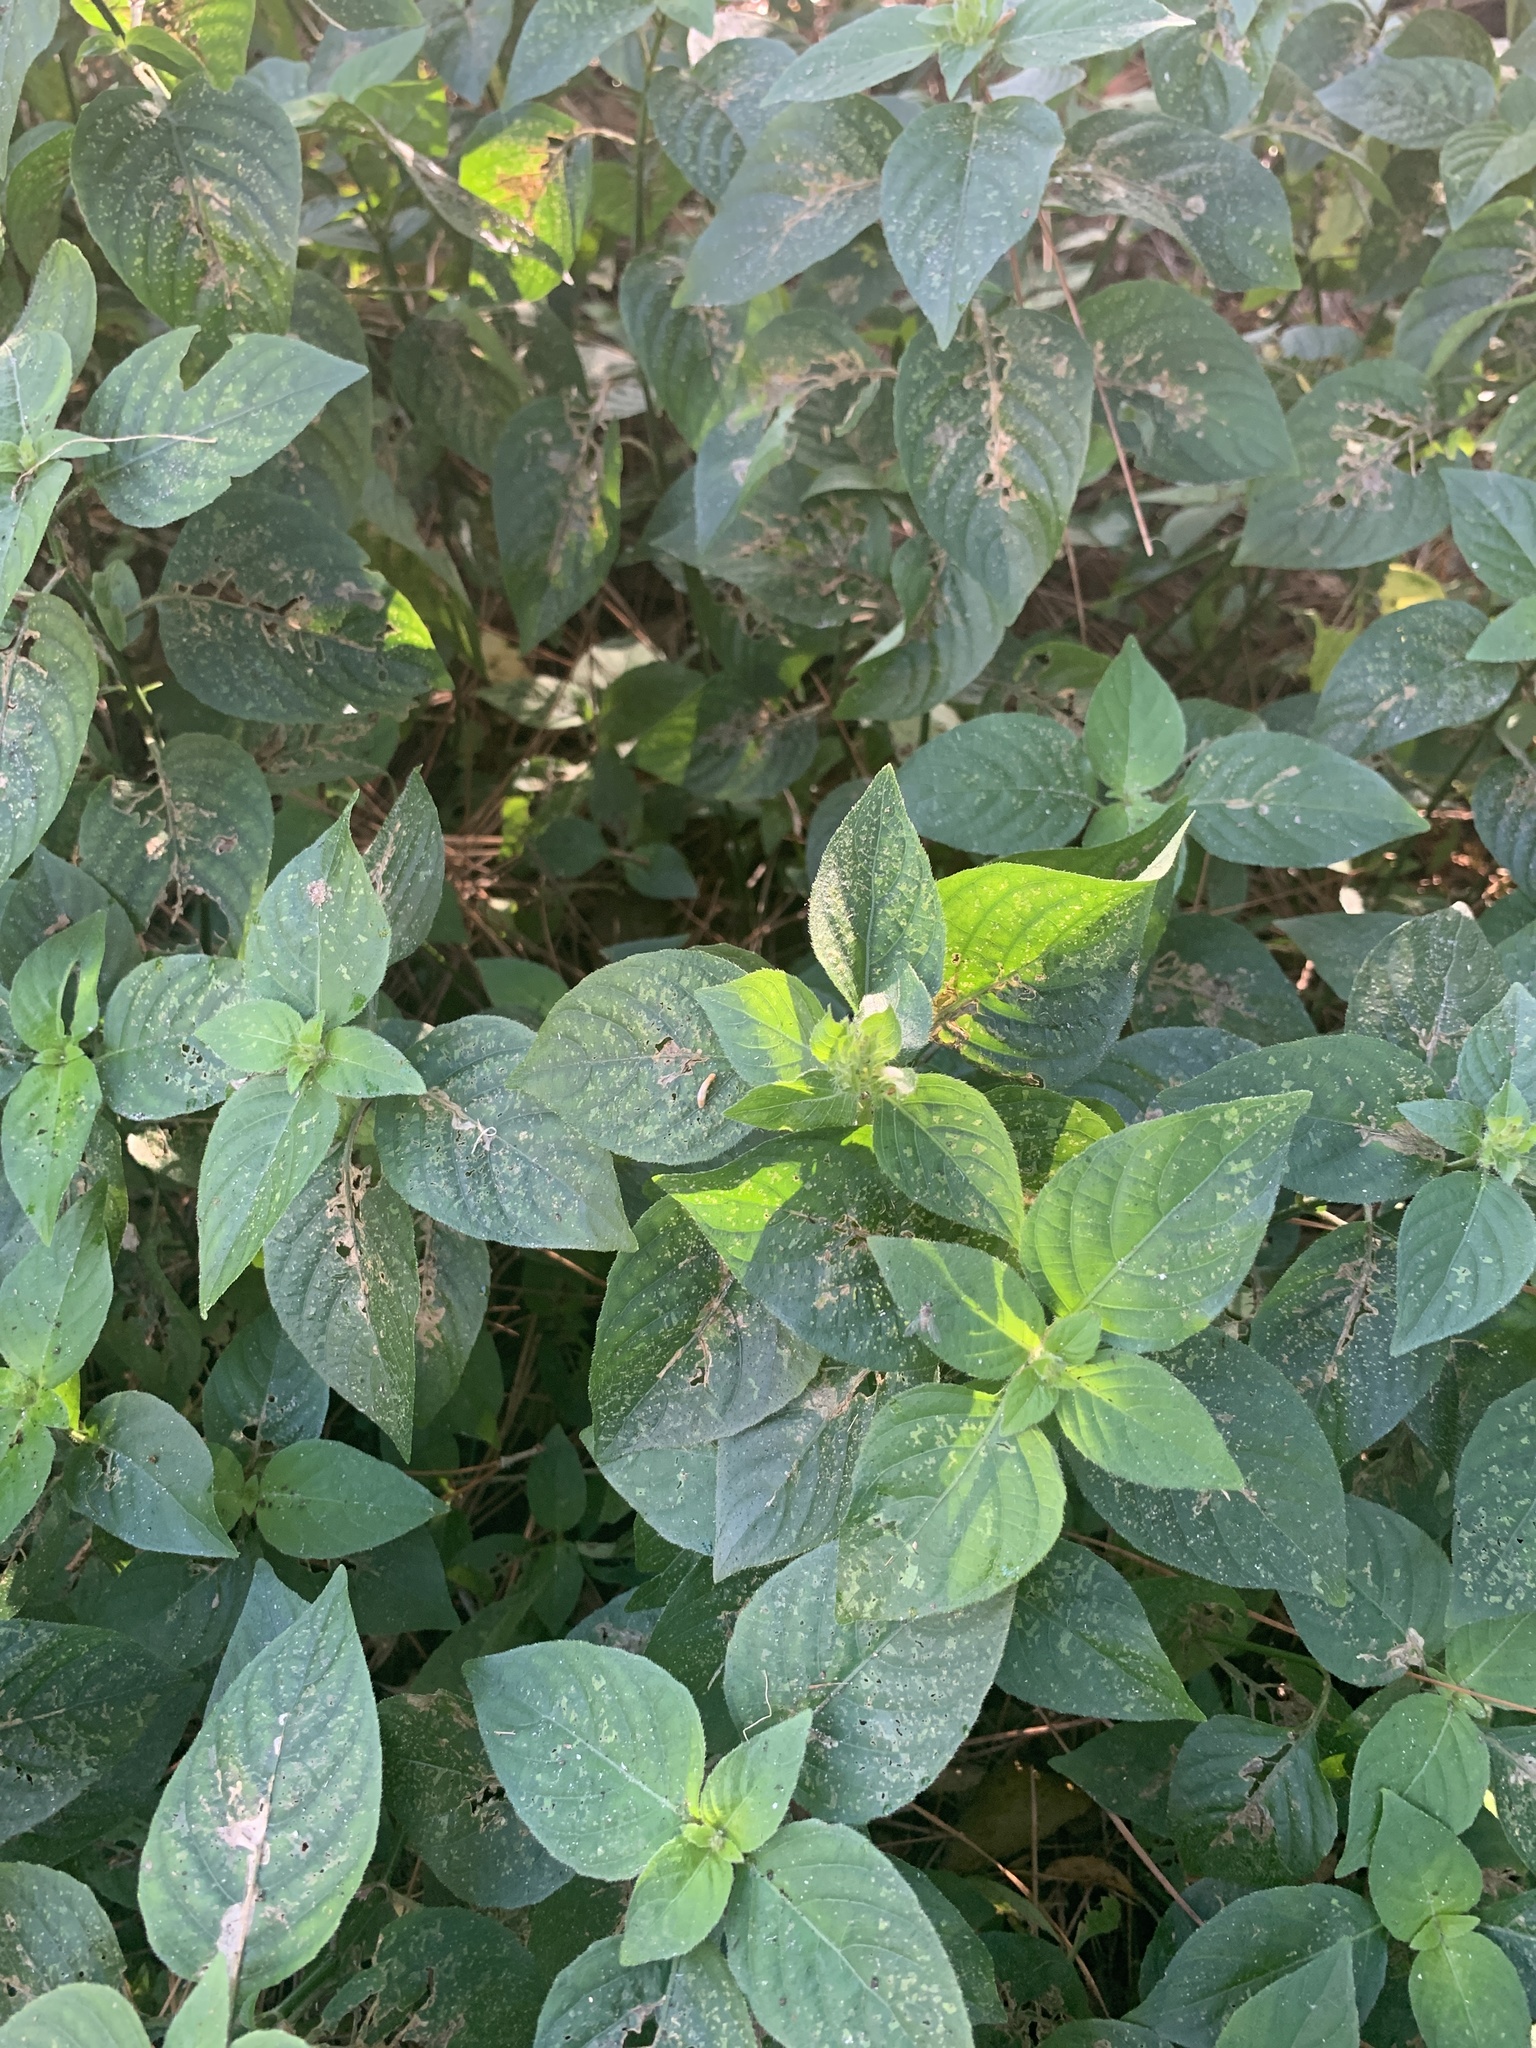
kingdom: Plantae
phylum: Tracheophyta
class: Magnoliopsida
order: Lamiales
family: Acanthaceae
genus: Ruellia
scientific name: Ruellia blechum
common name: Browne's blechum
